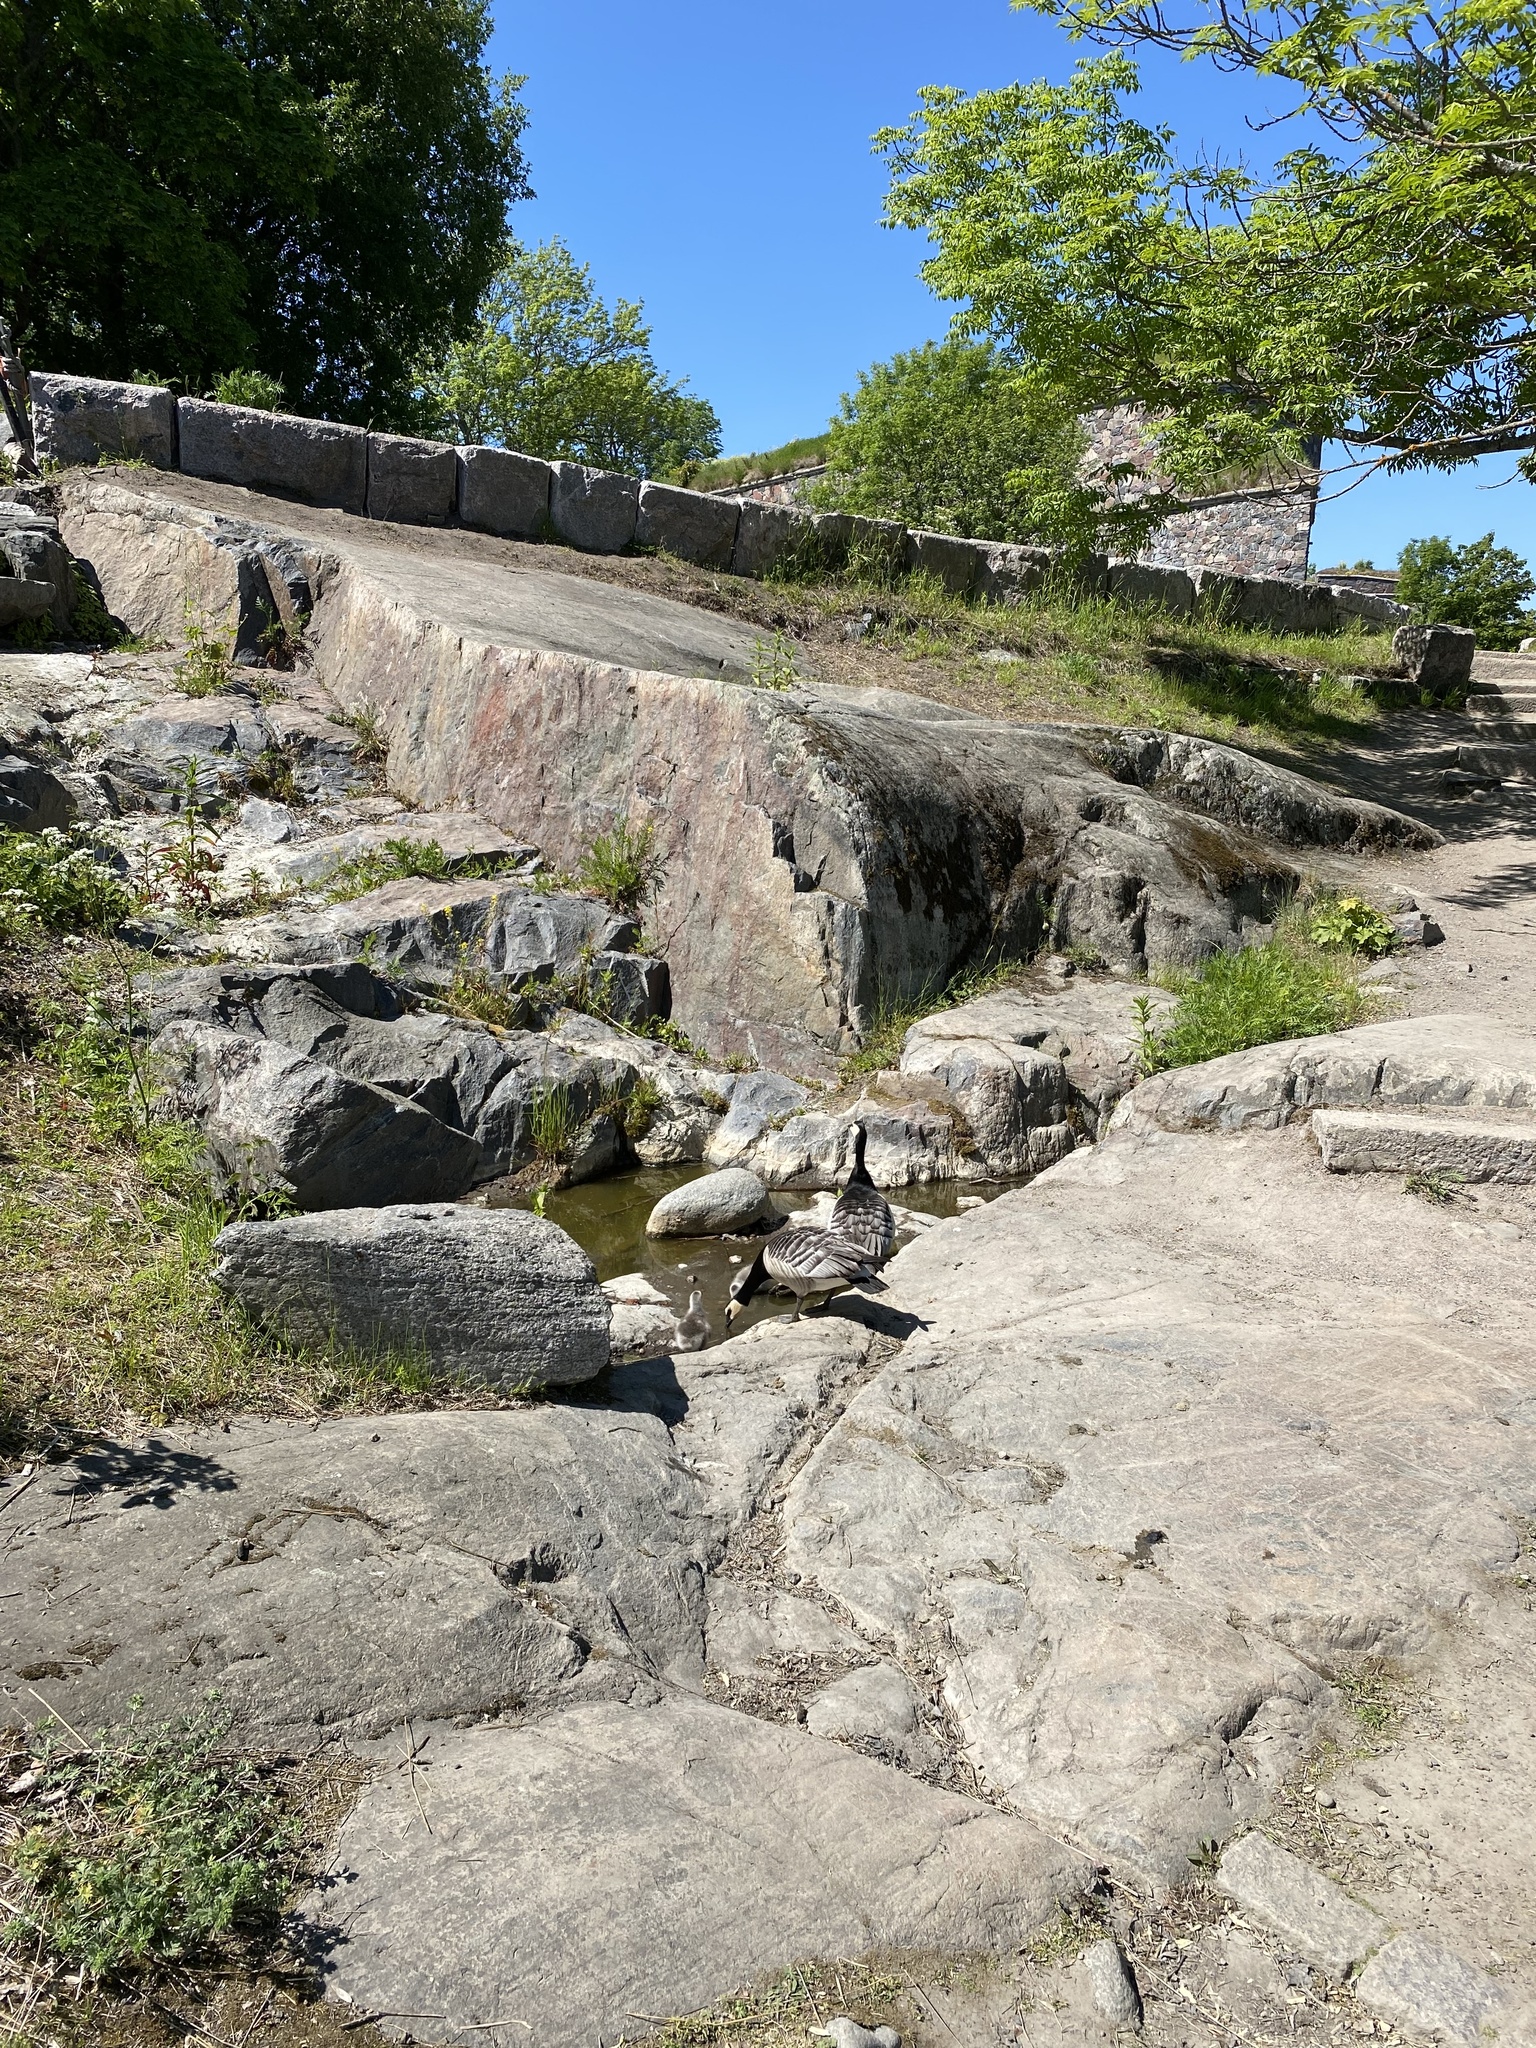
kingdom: Animalia
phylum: Chordata
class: Aves
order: Anseriformes
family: Anatidae
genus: Branta
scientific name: Branta leucopsis
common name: Barnacle goose
